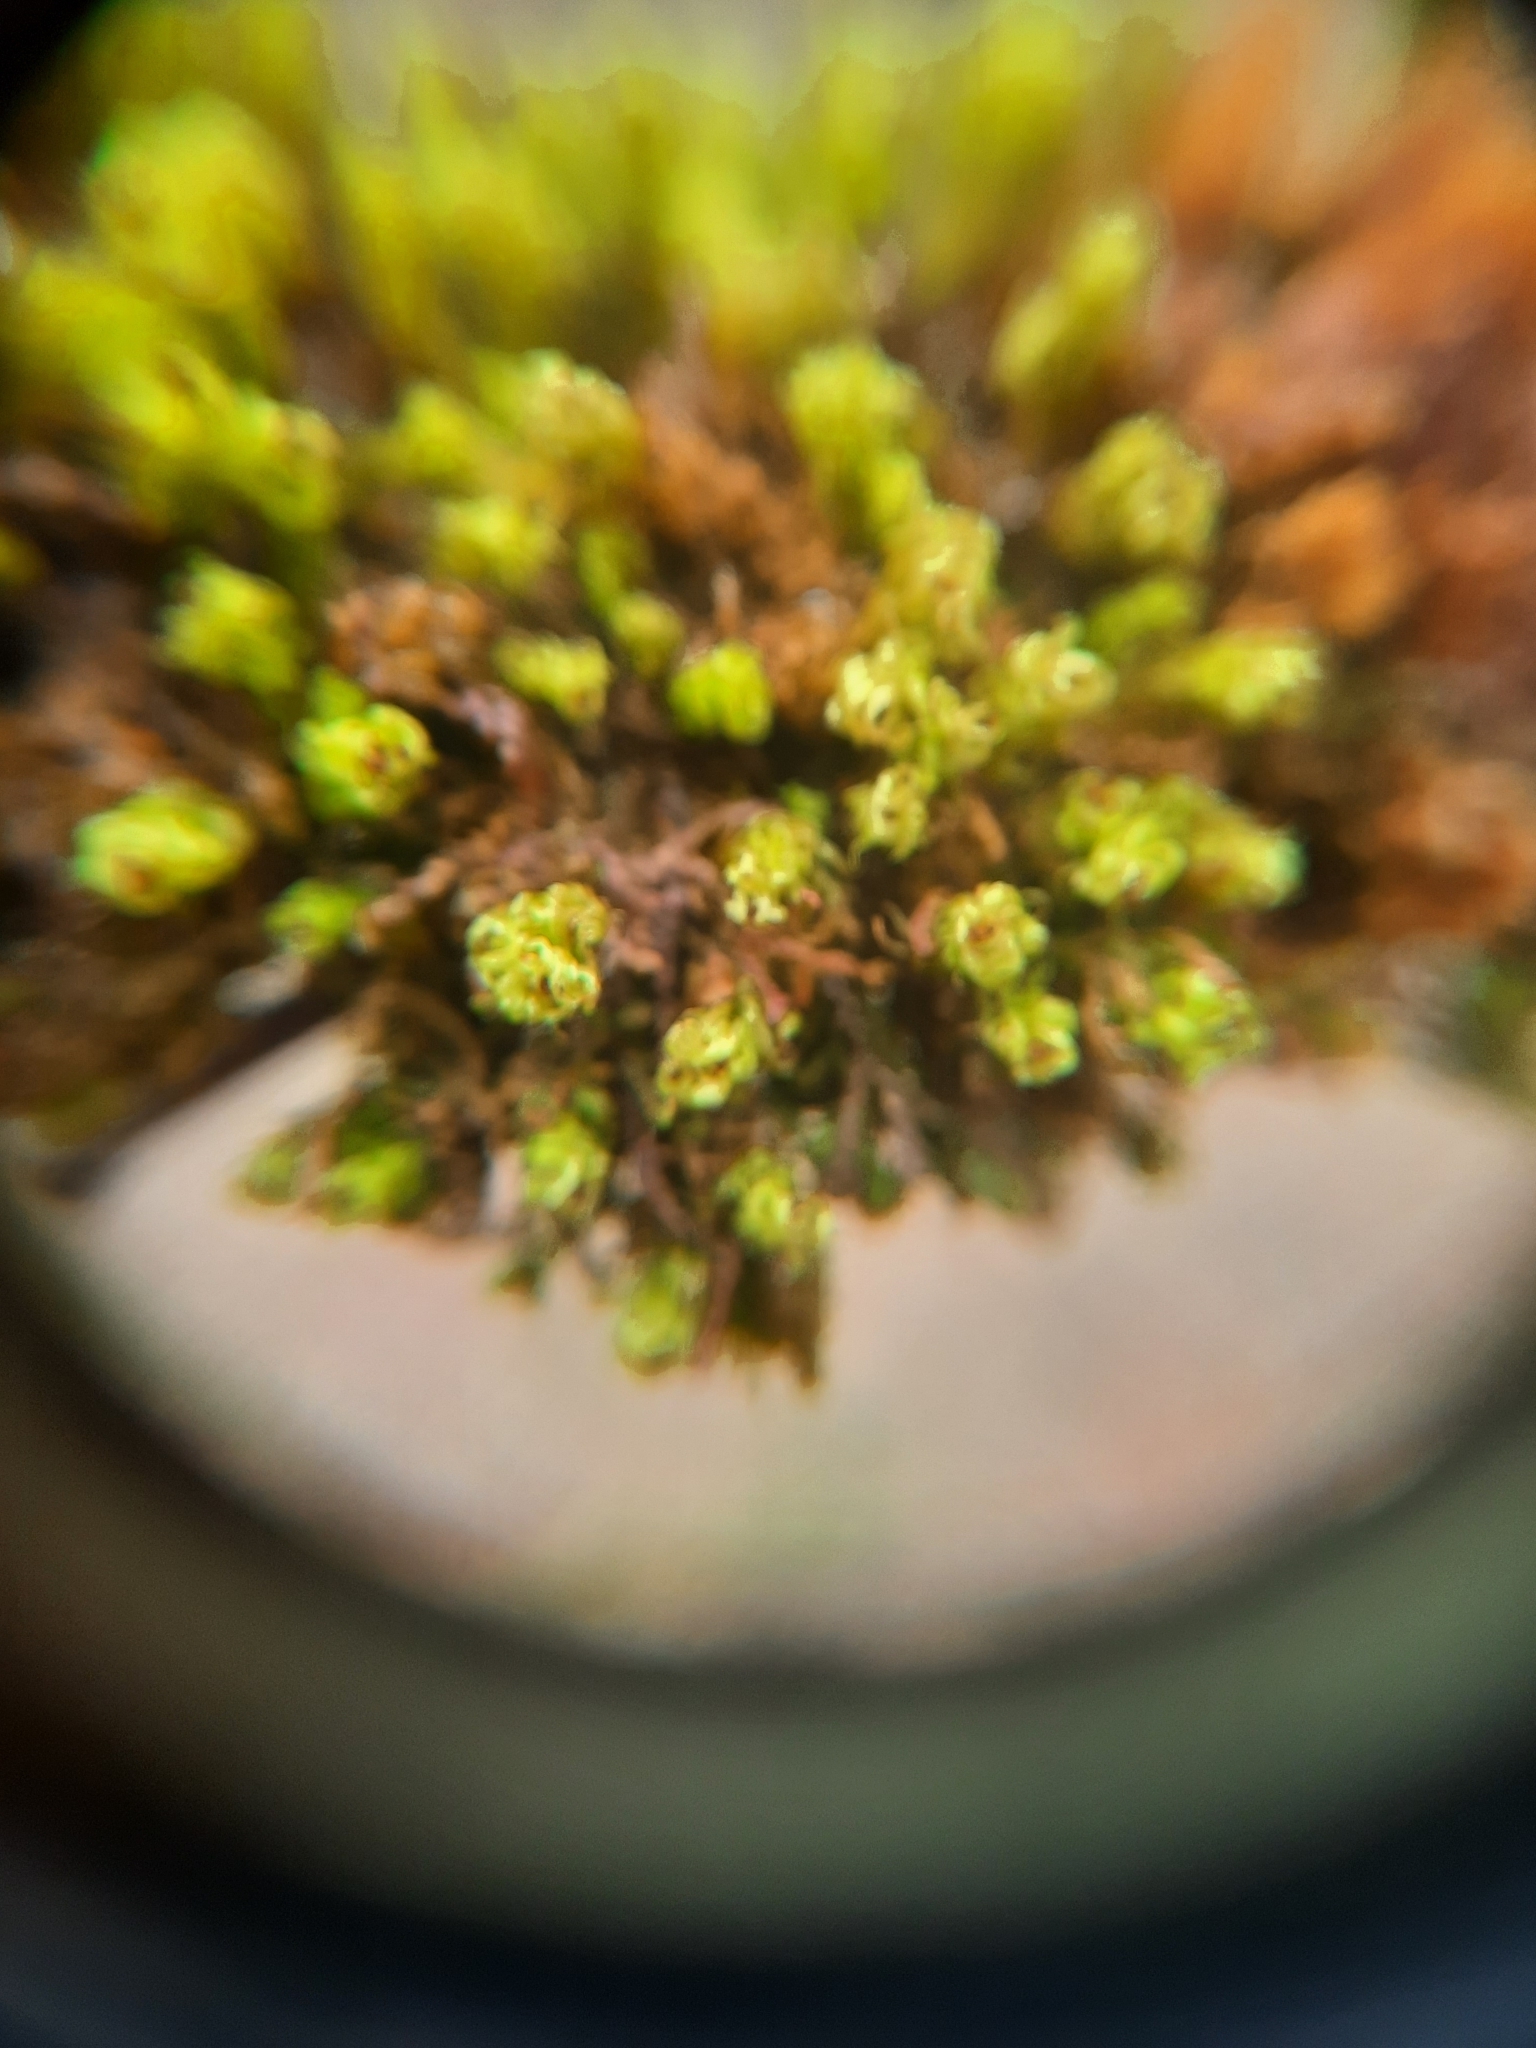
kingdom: Plantae
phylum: Bryophyta
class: Bryopsida
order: Orthotrichales
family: Orthotrichaceae
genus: Plenogemma
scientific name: Plenogemma phyllantha
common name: Frizzled pincushion
